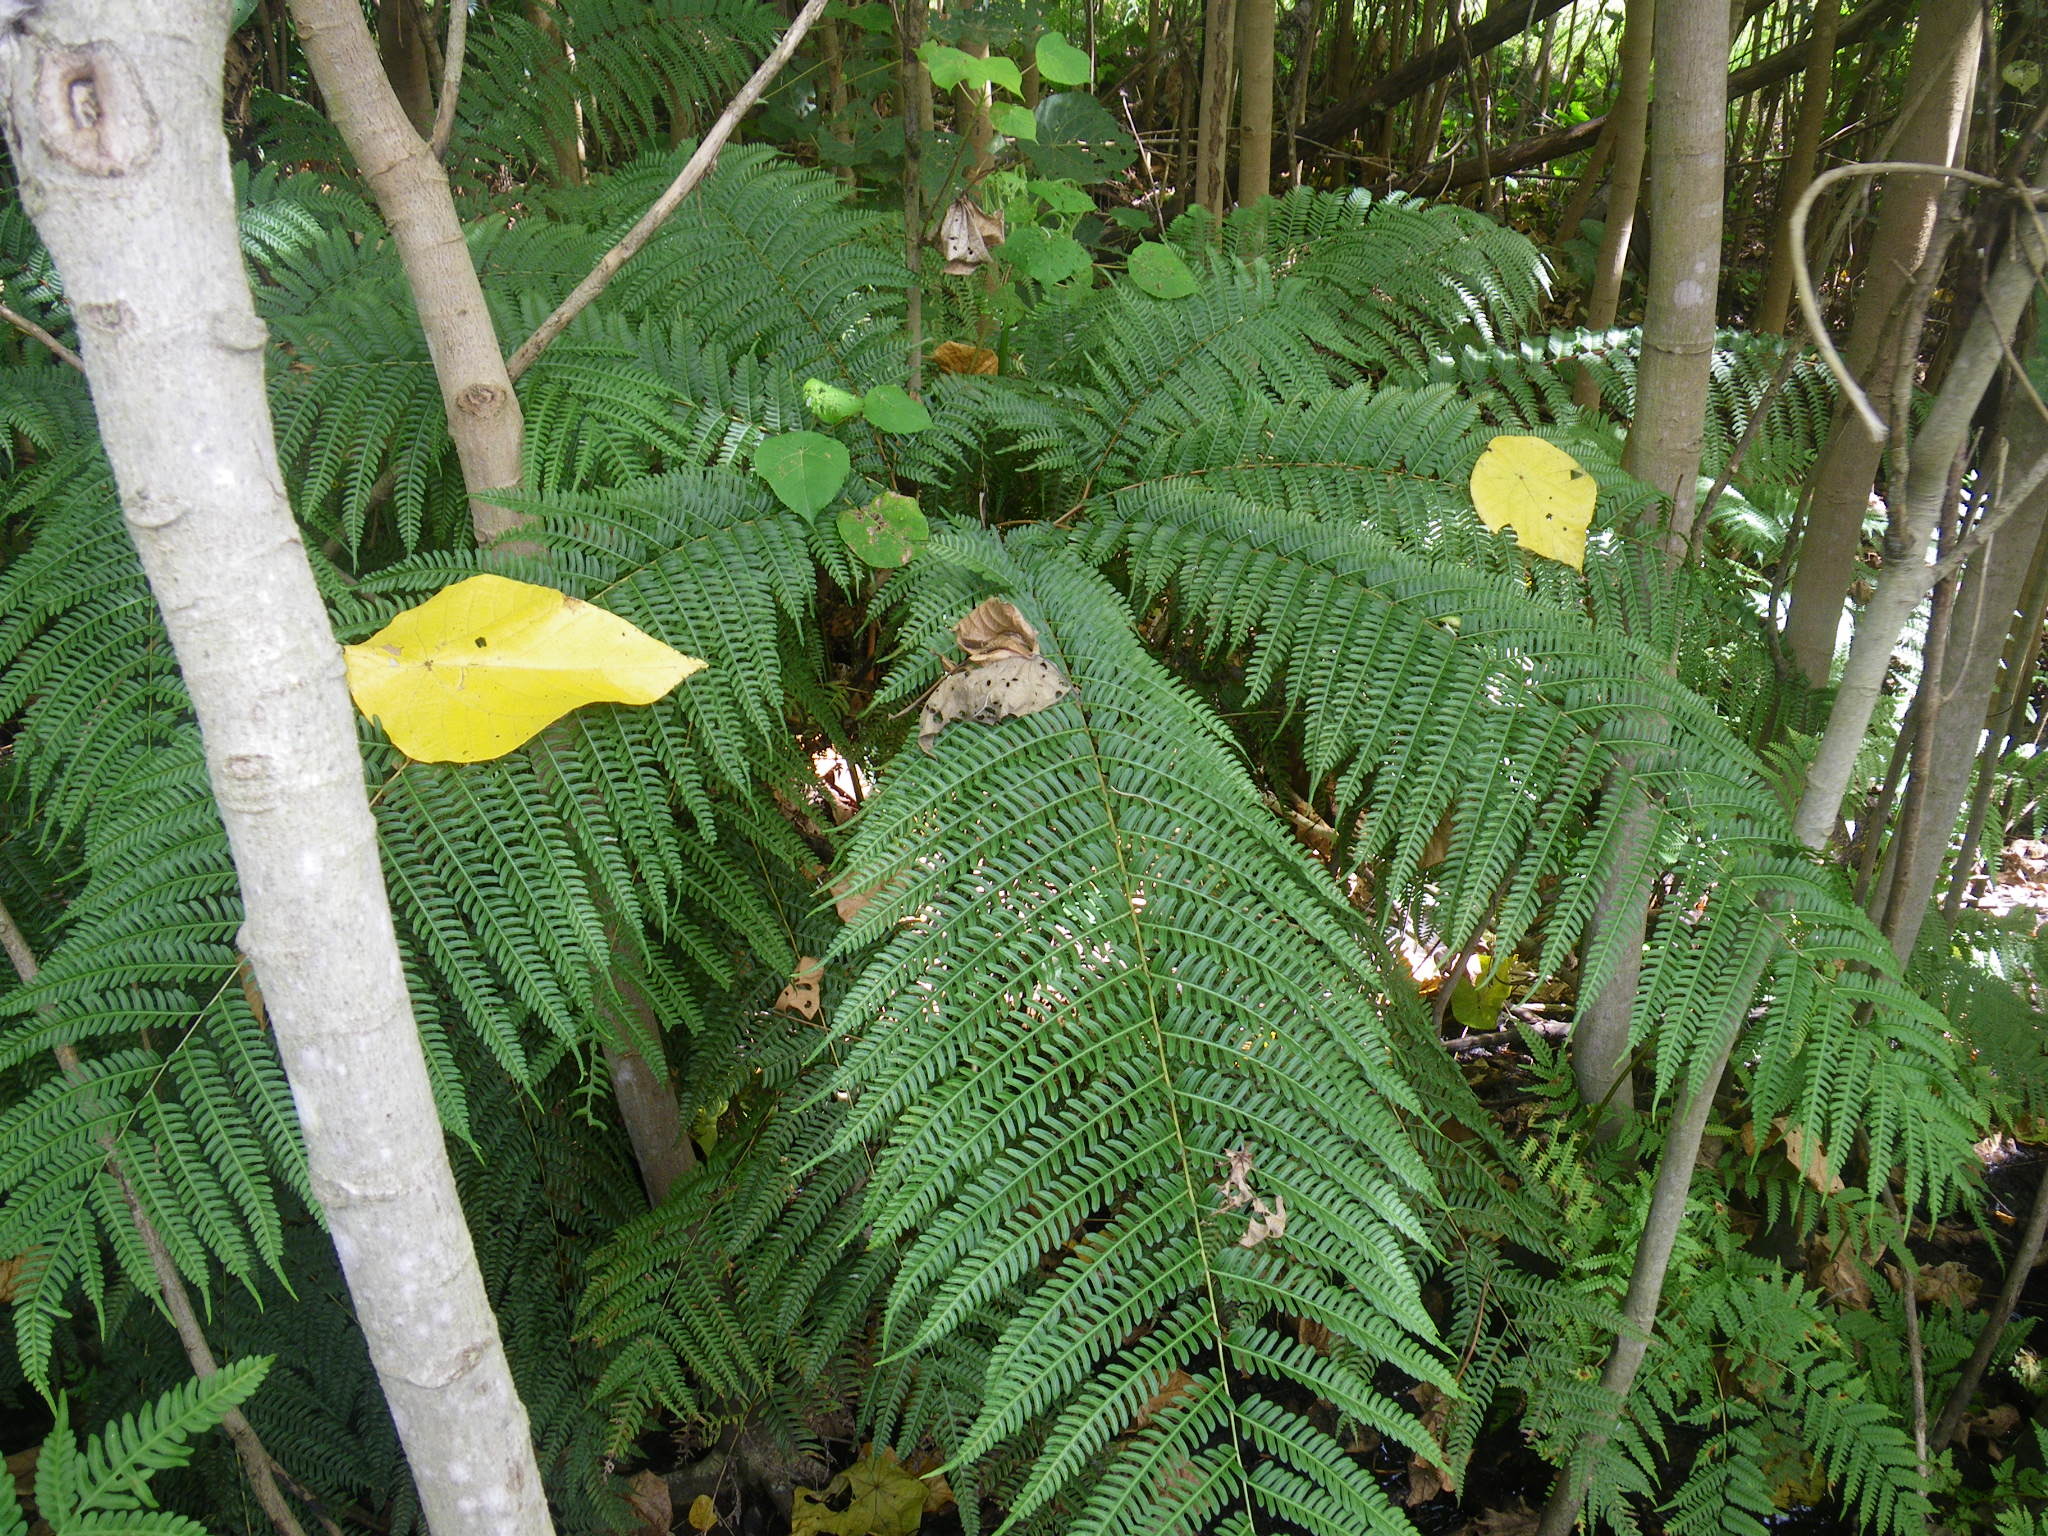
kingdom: Plantae
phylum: Tracheophyta
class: Polypodiopsida
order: Polypodiales
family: Pteridaceae
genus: Pteris
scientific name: Pteris tripartita
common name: Giant brake
